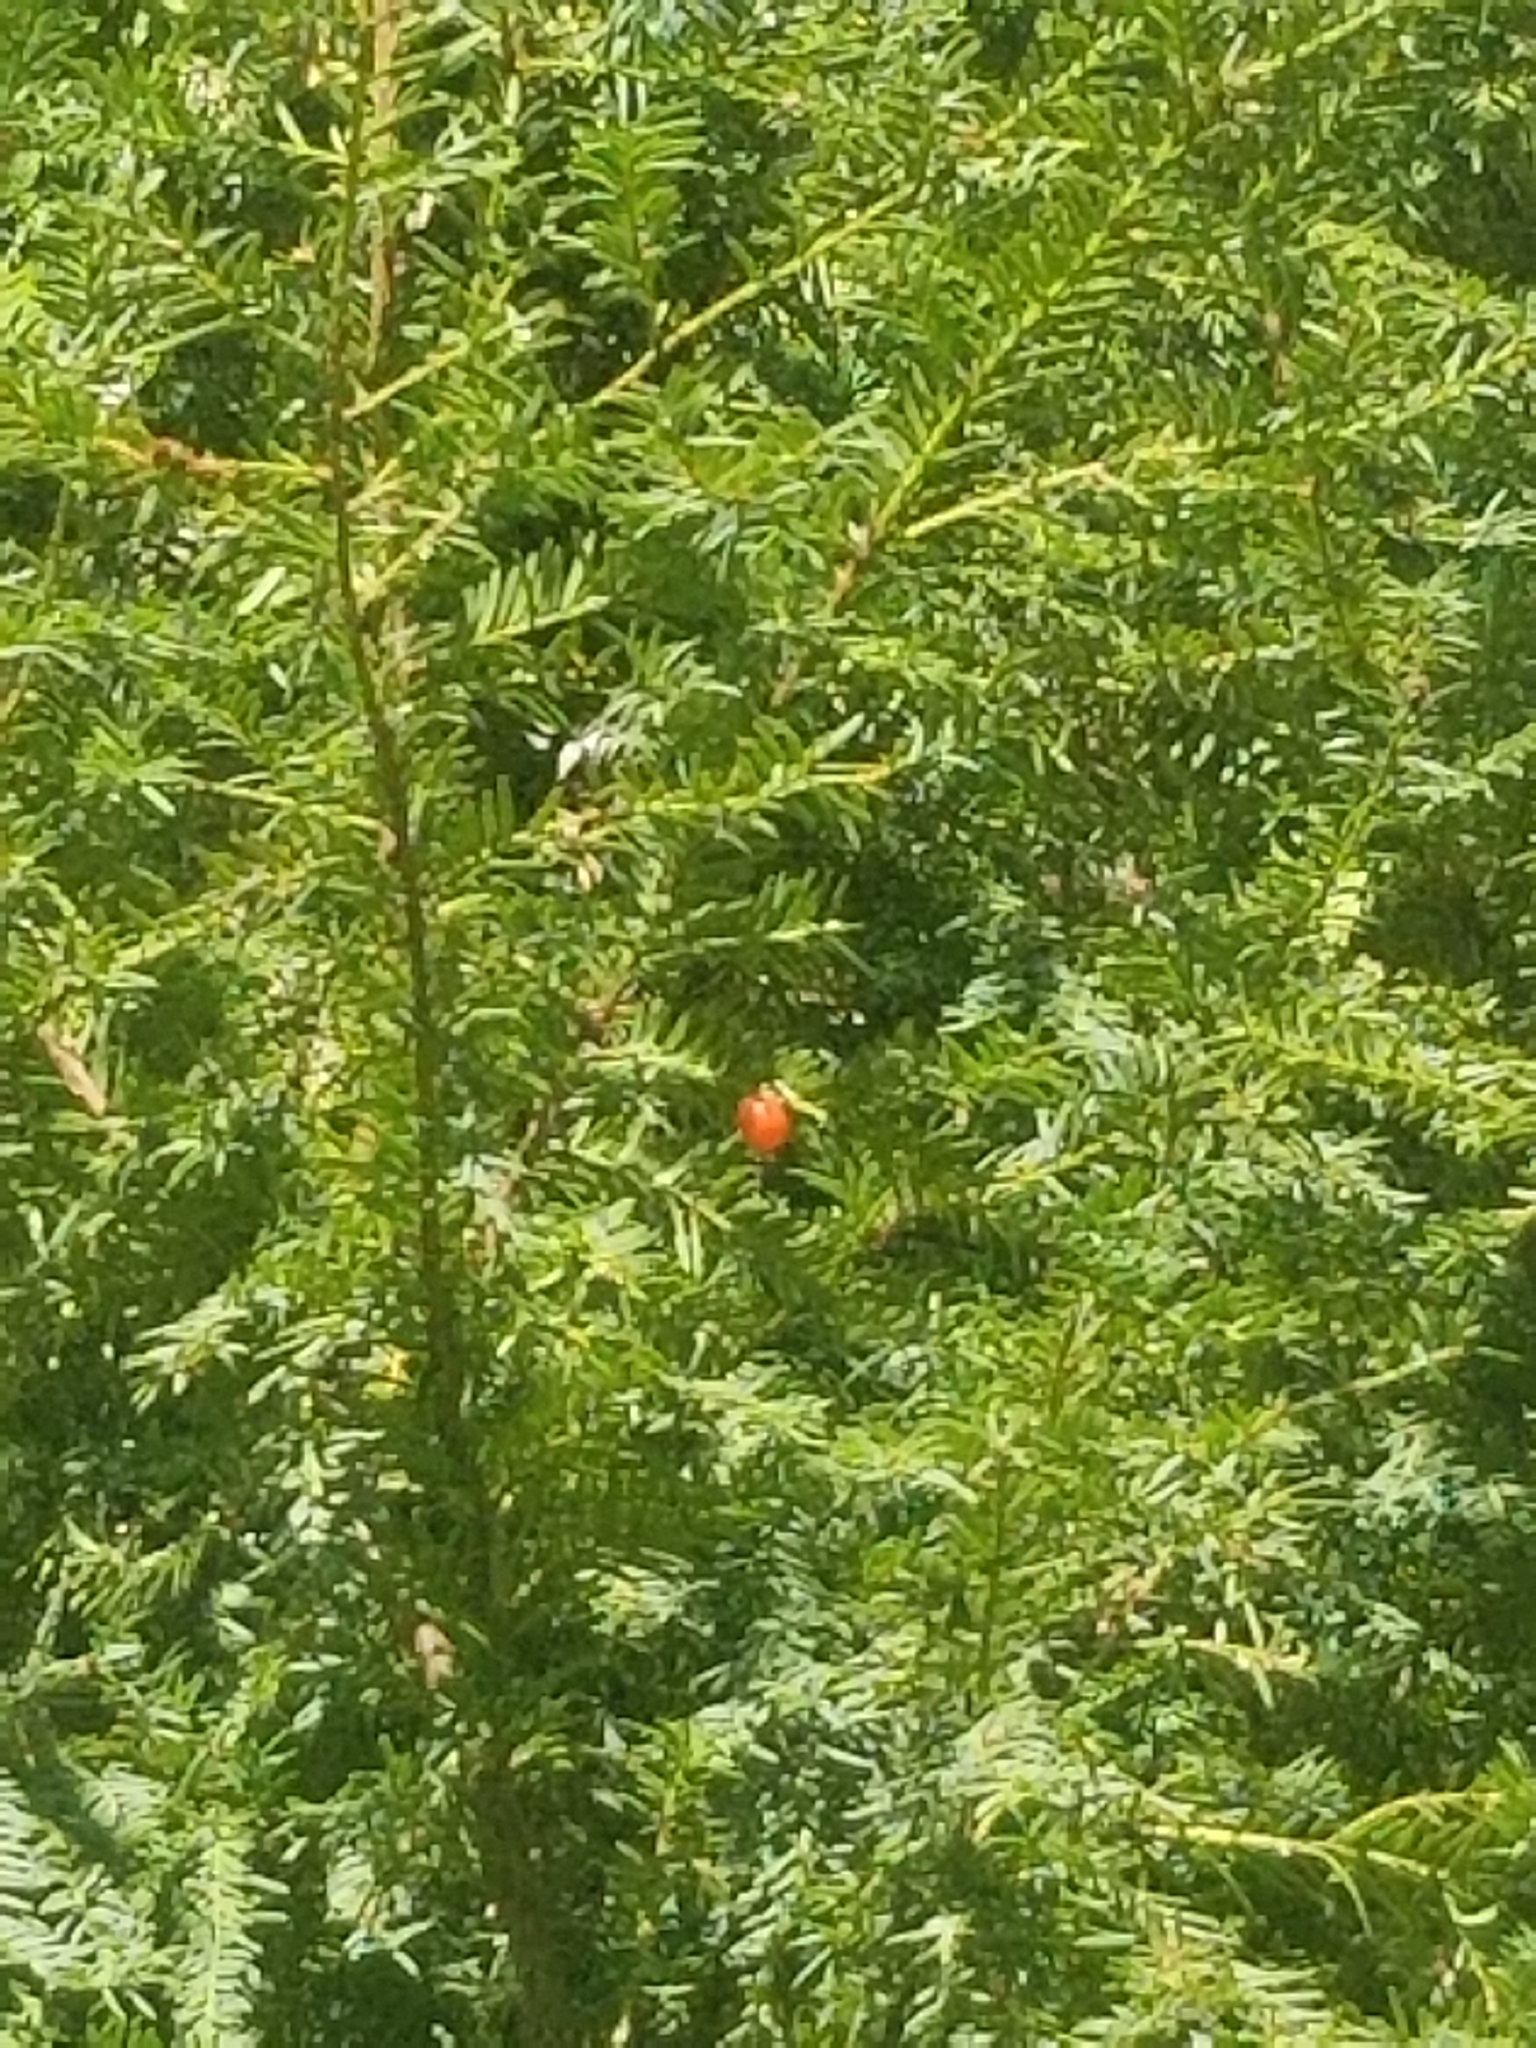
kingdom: Plantae
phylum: Tracheophyta
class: Pinopsida
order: Pinales
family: Taxaceae
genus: Taxus
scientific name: Taxus brevifolia
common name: Pacific yew
